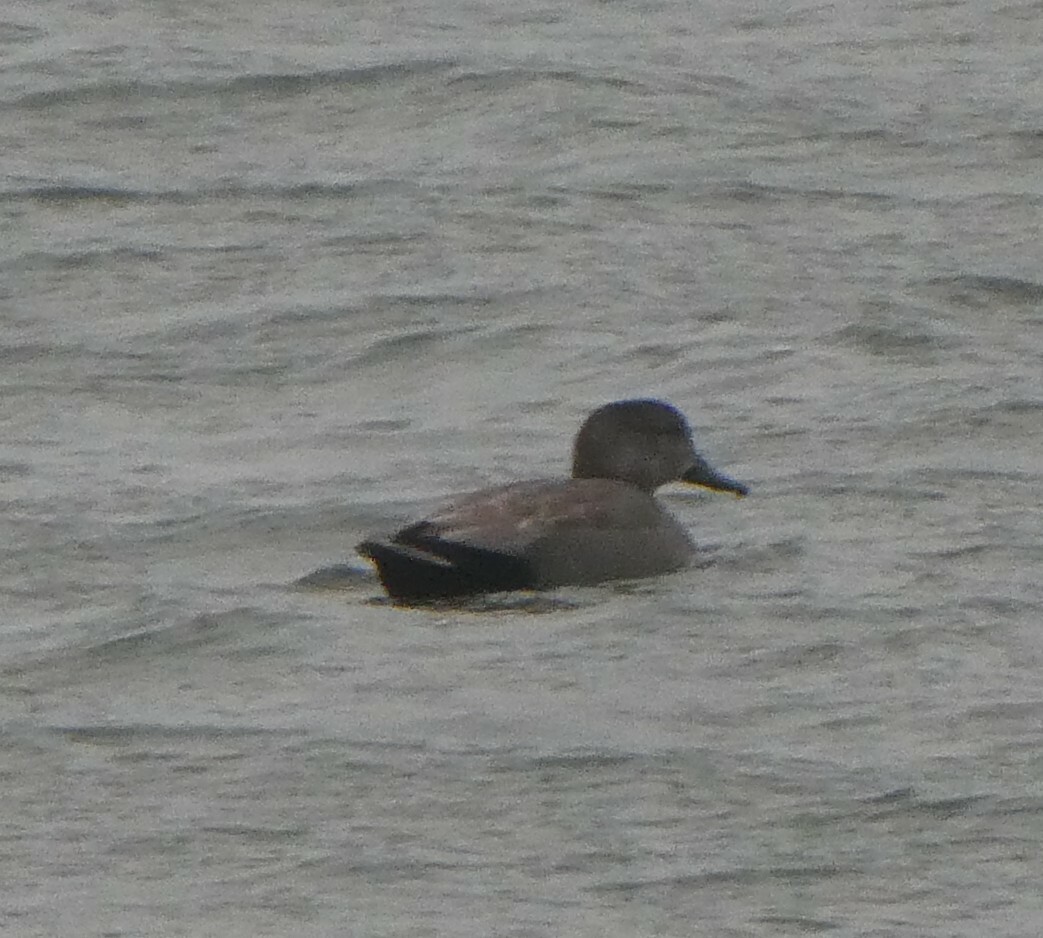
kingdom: Animalia
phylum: Chordata
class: Aves
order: Anseriformes
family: Anatidae
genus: Mareca
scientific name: Mareca strepera
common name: Gadwall
